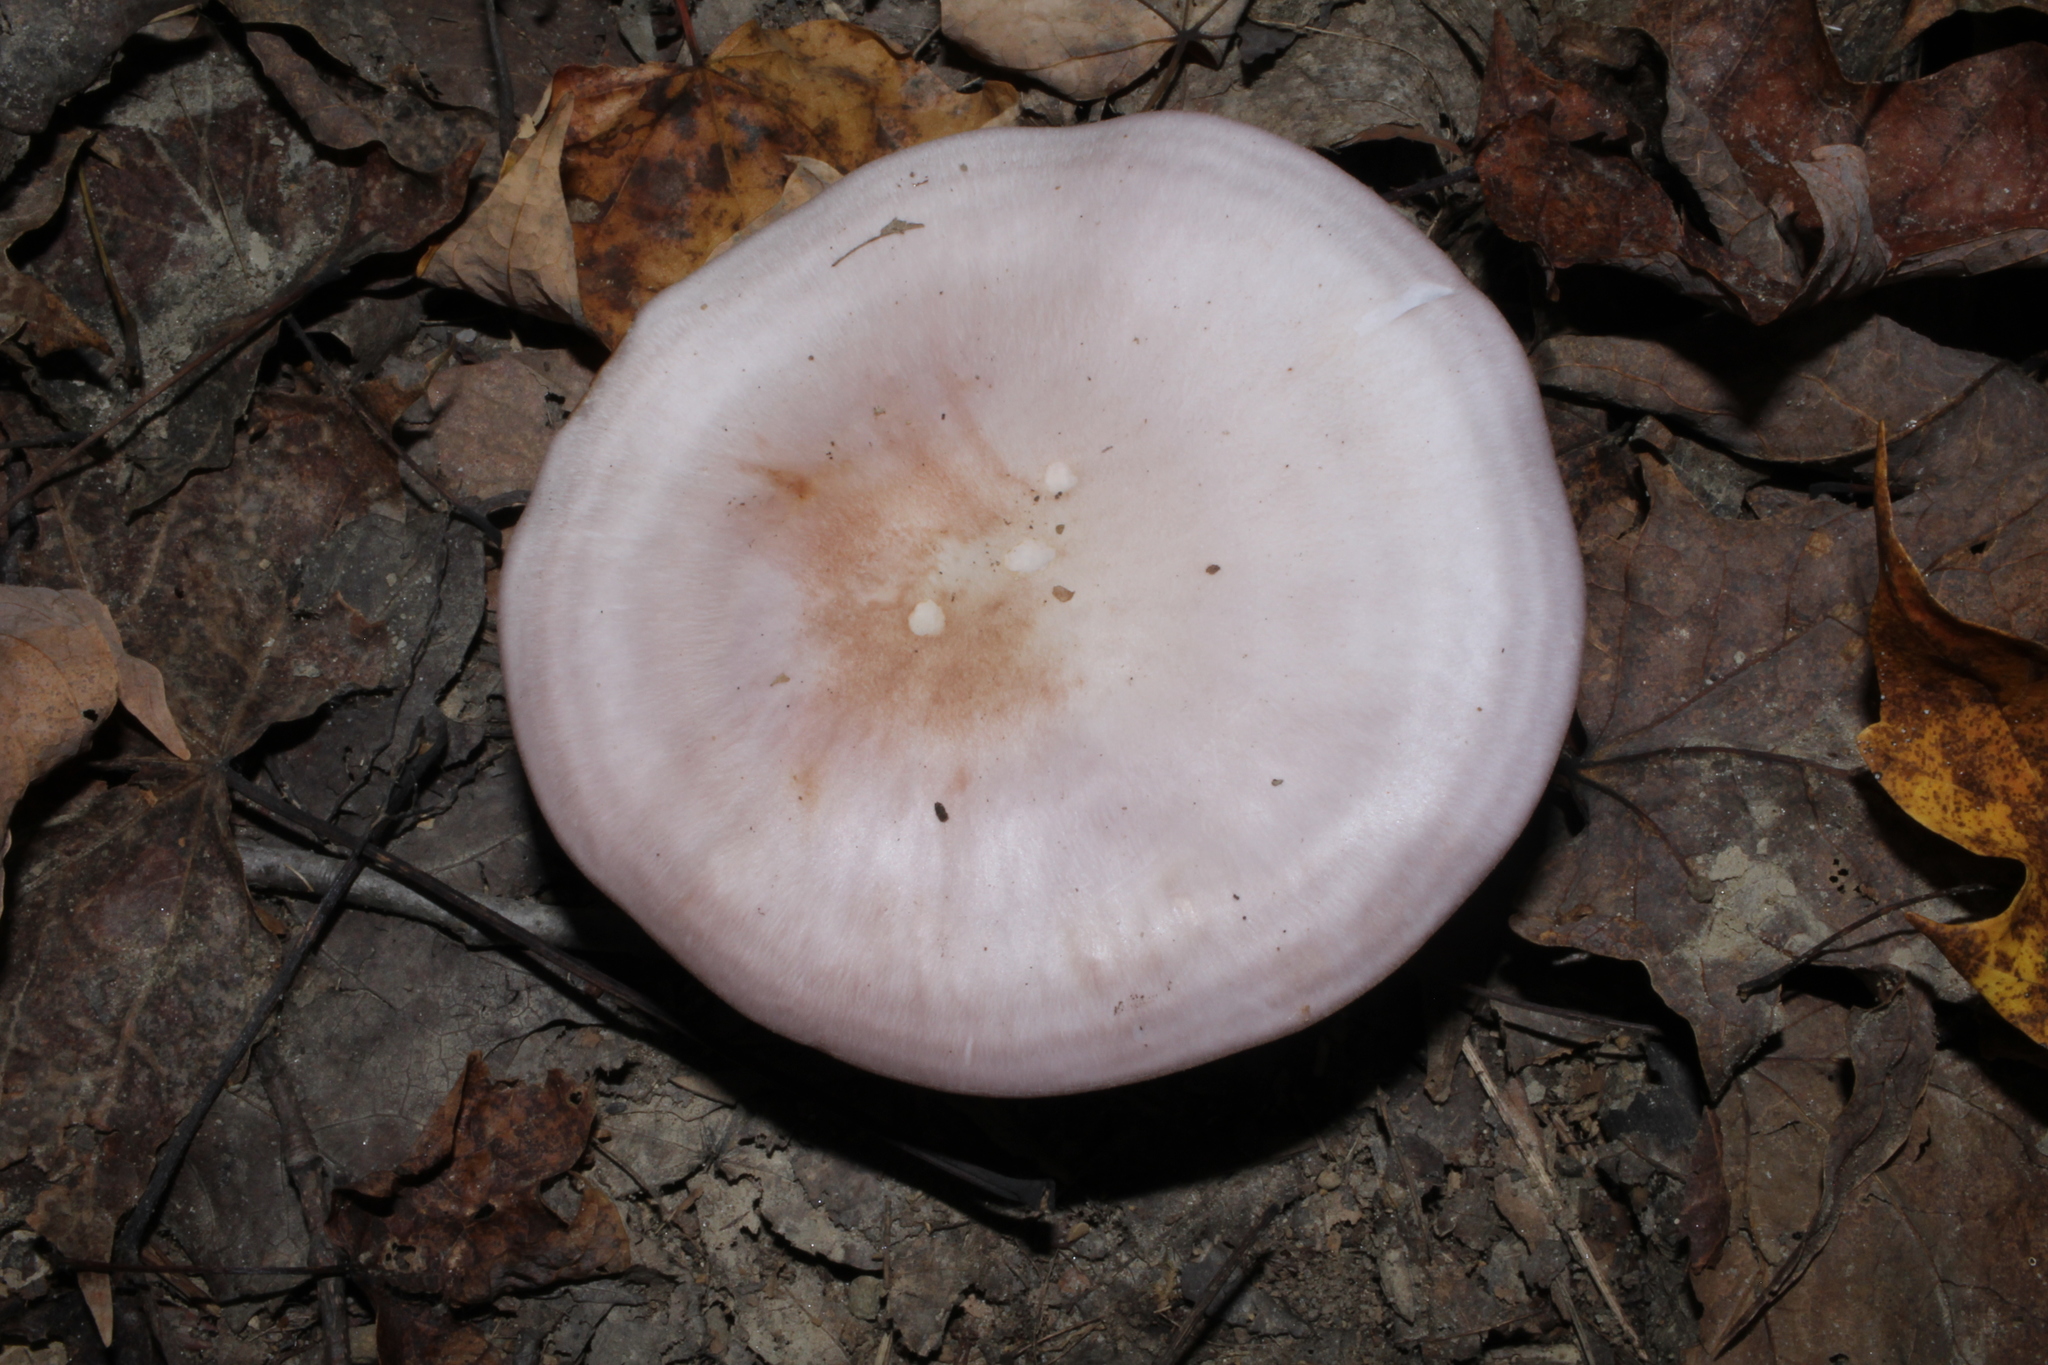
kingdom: Fungi
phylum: Basidiomycota
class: Agaricomycetes
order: Agaricales
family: Tricholomataceae
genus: Collybia
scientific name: Collybia
